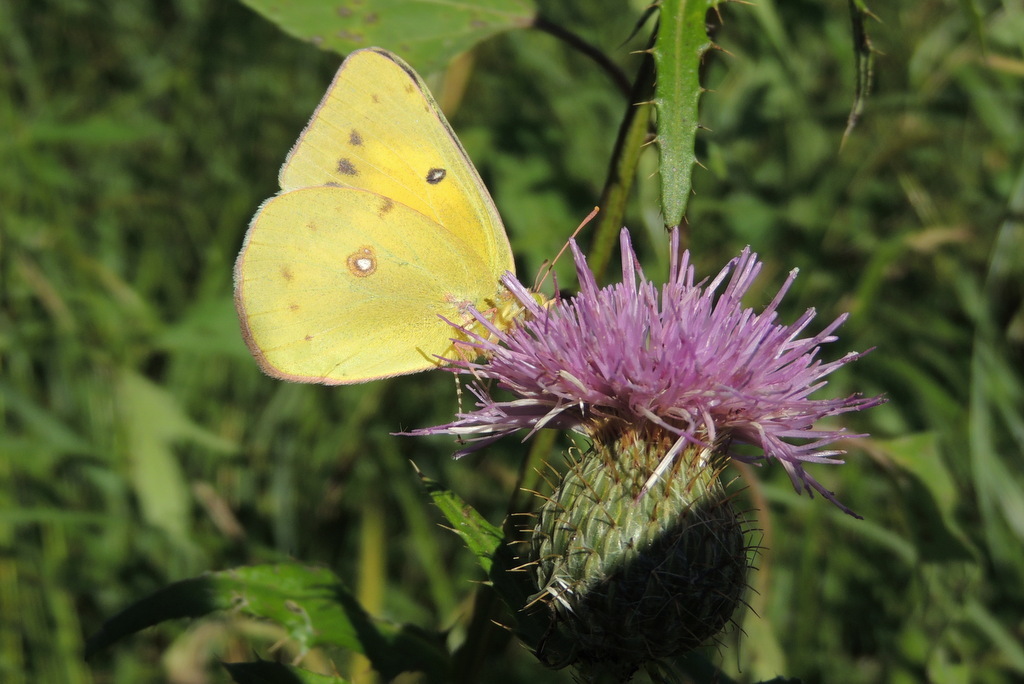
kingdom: Animalia
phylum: Arthropoda
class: Insecta
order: Lepidoptera
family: Pieridae
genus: Colias
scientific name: Colias eurytheme
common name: Alfalfa butterfly
